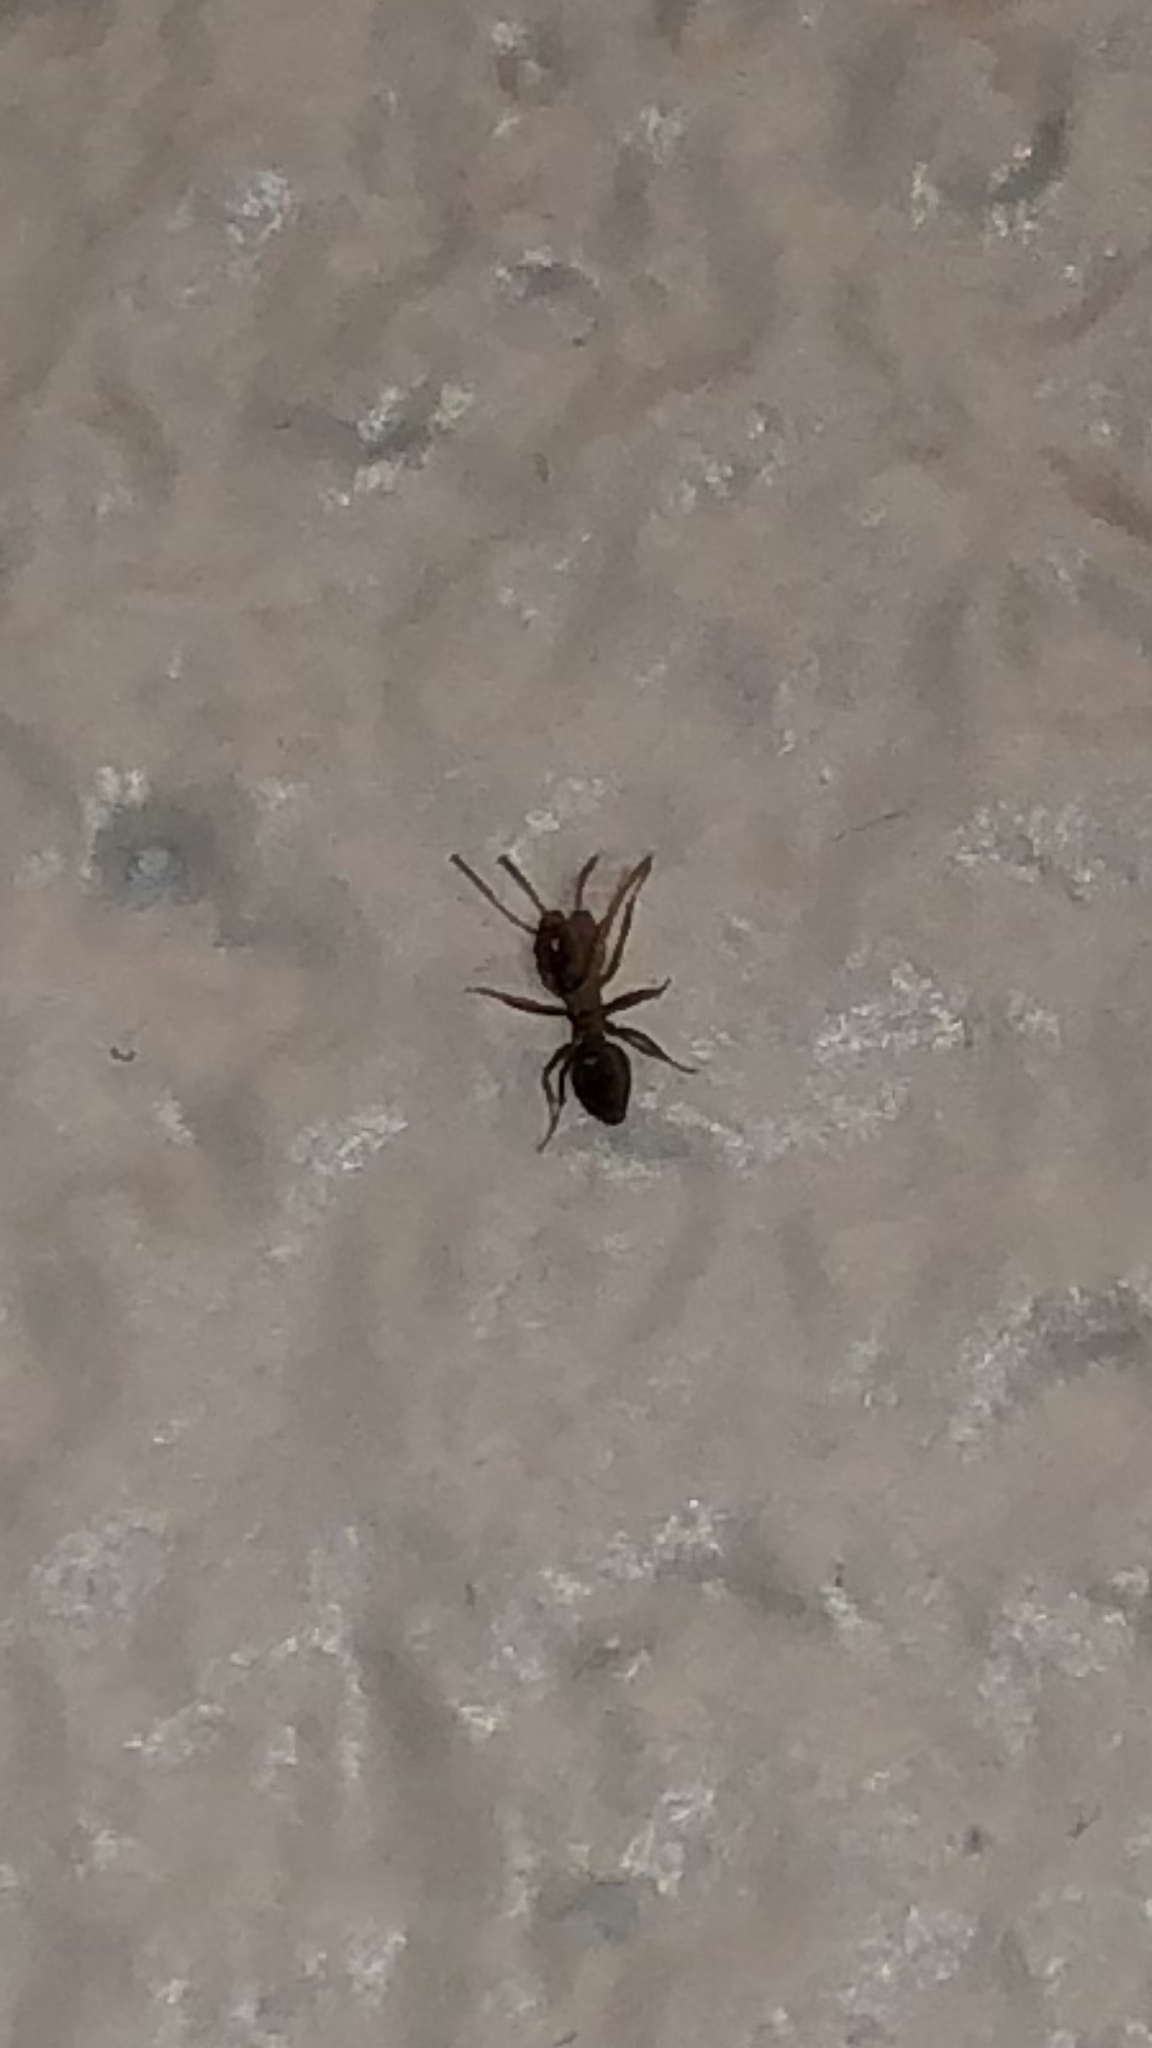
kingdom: Animalia
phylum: Arthropoda
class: Insecta
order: Hymenoptera
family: Formicidae
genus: Tapinoma
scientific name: Tapinoma sessile
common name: Odorous house ant
